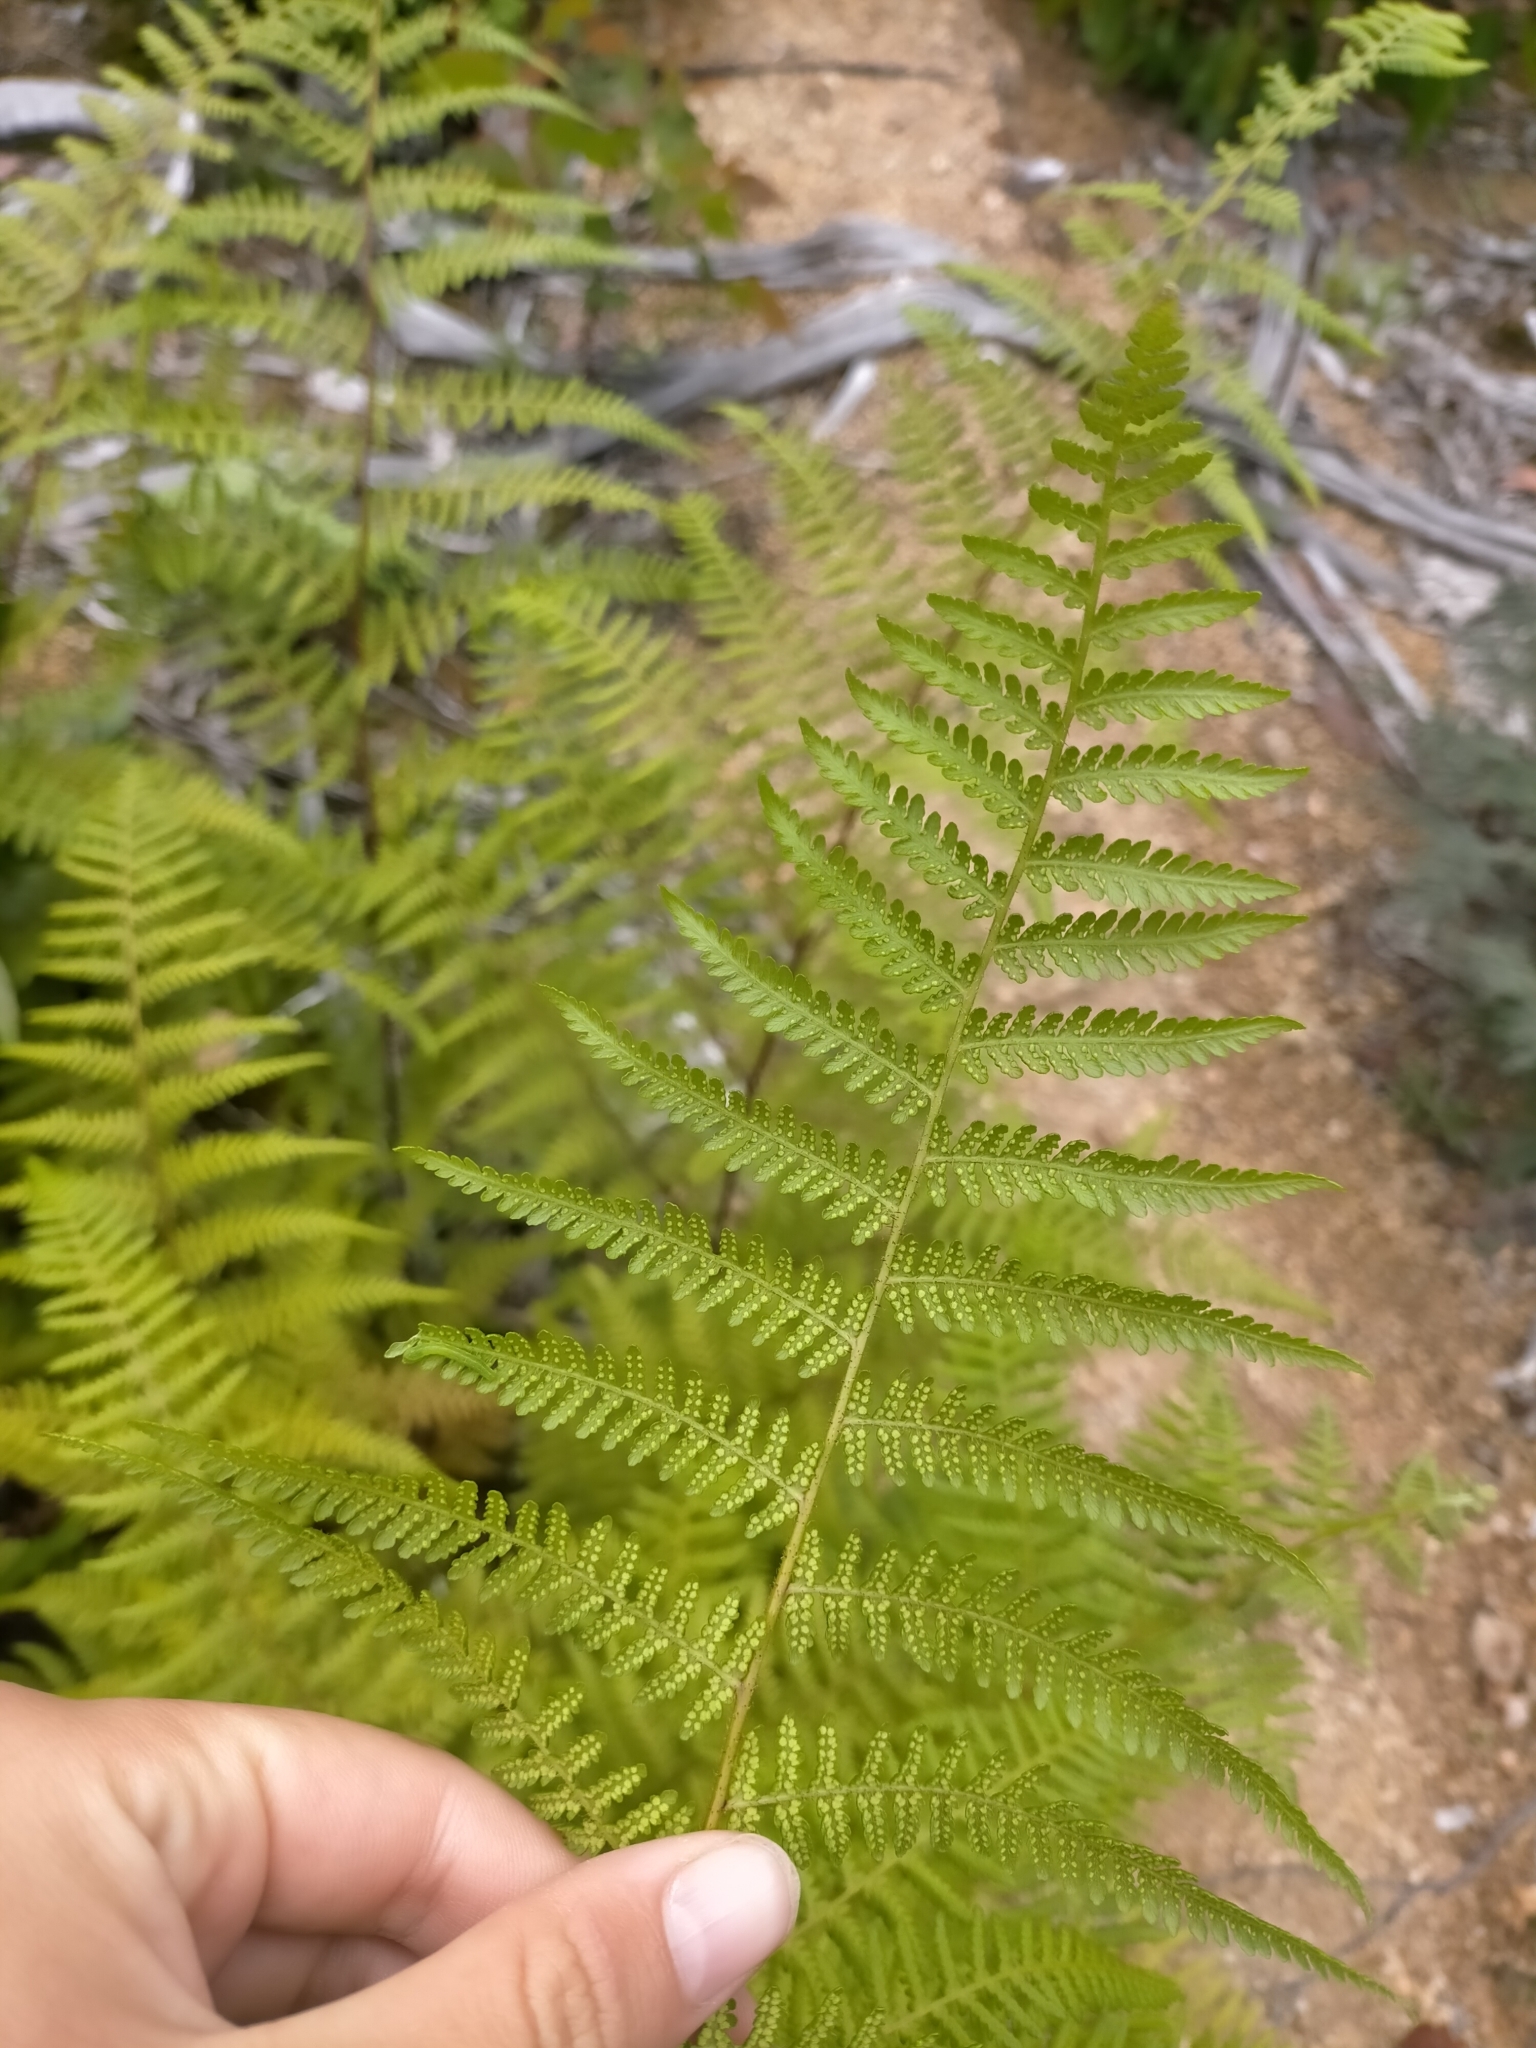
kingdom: Plantae
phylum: Tracheophyta
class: Polypodiopsida
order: Polypodiales
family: Dennstaedtiaceae
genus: Hypolepis
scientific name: Hypolepis rugosula
